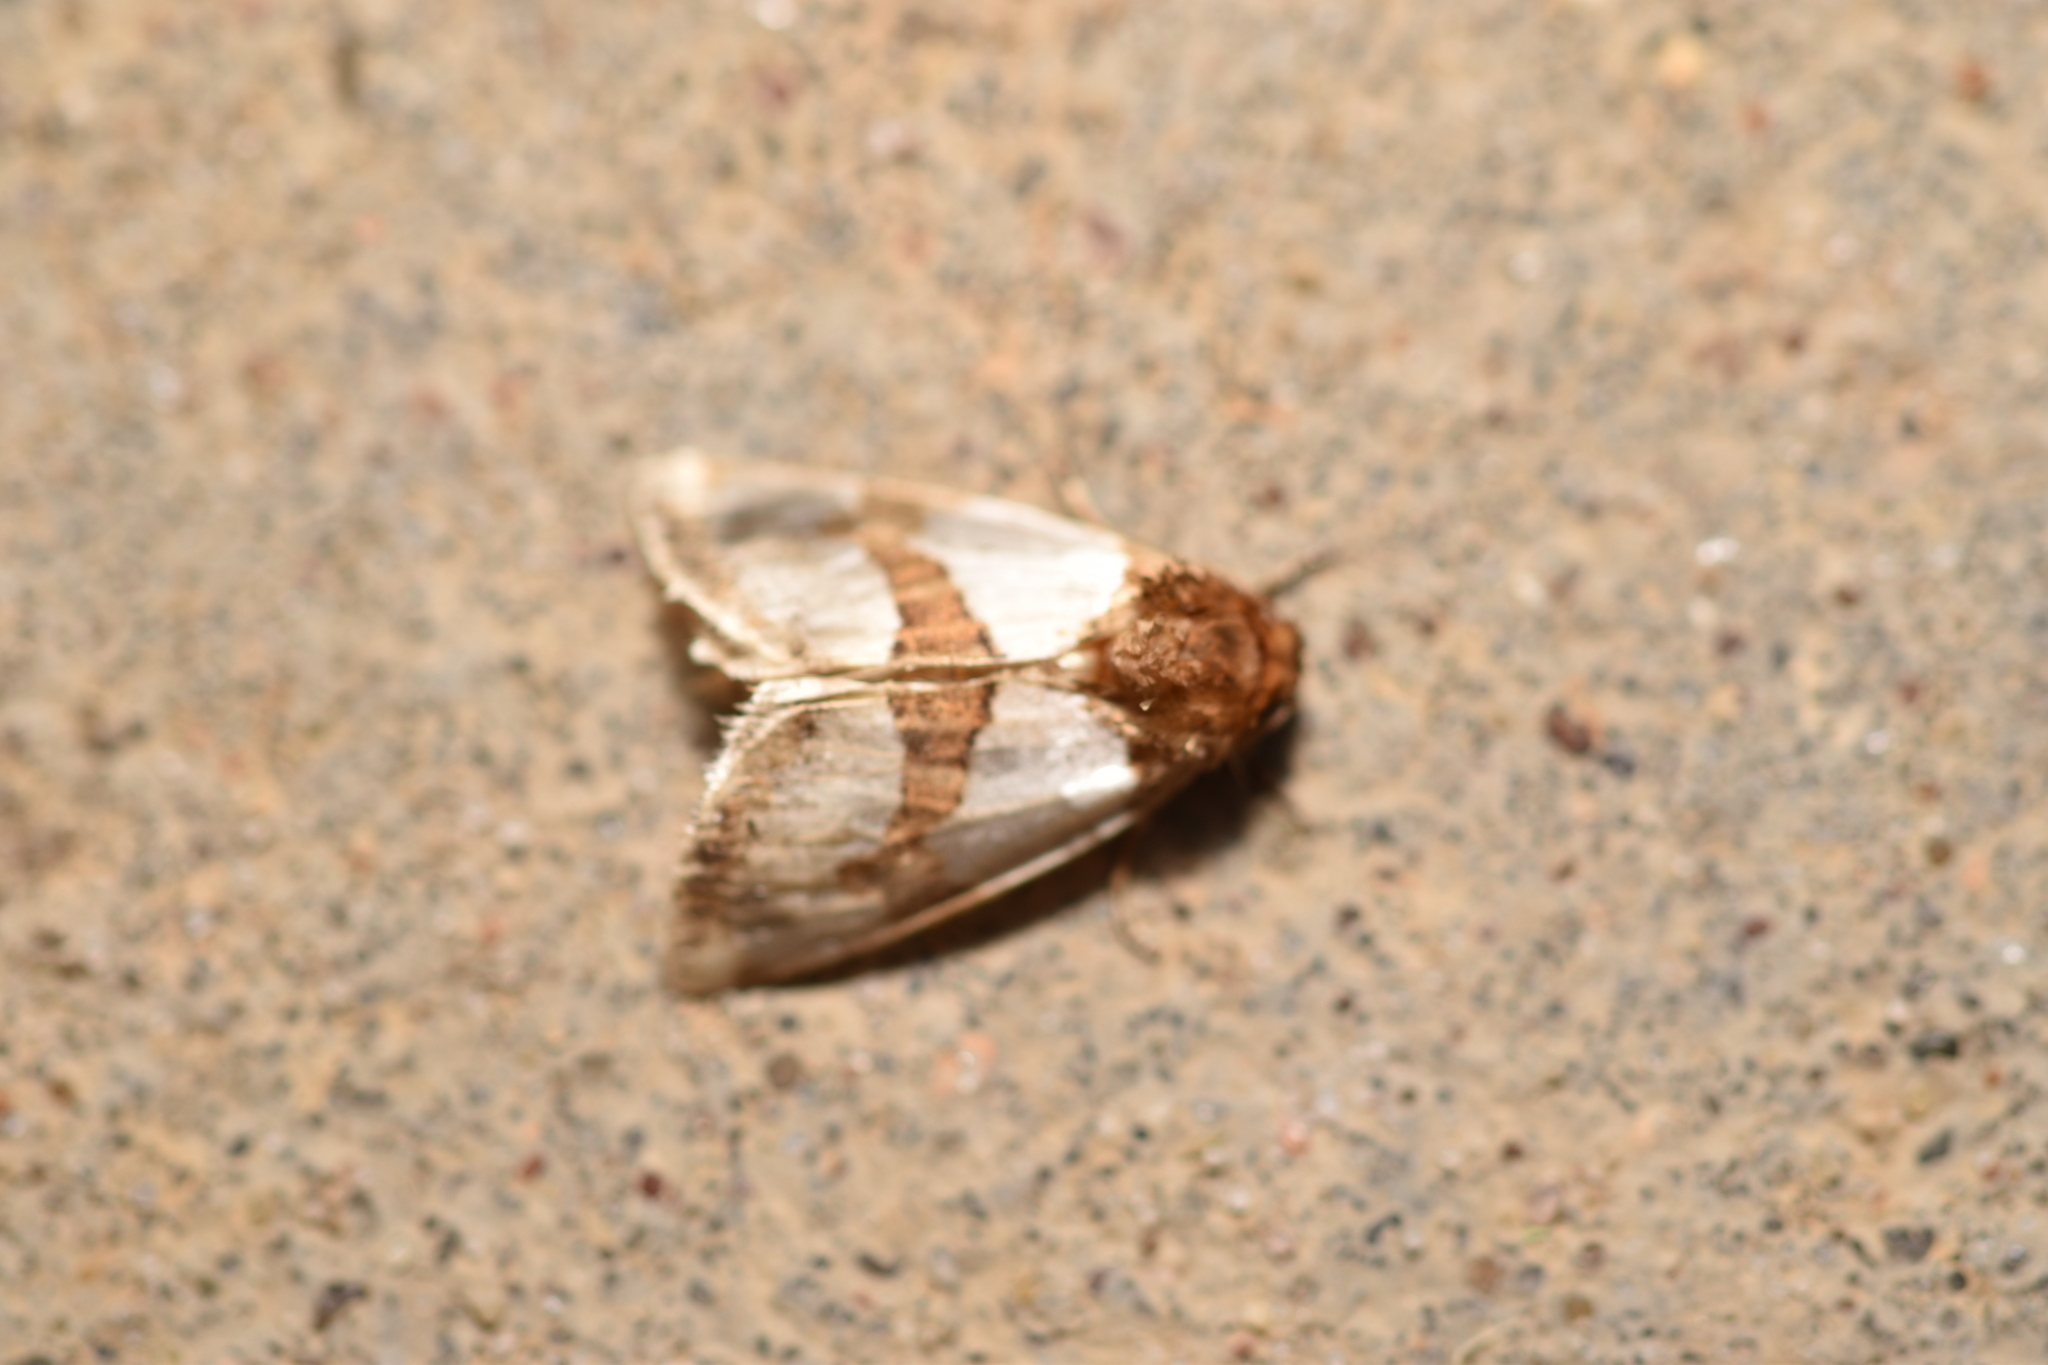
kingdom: Animalia
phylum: Arthropoda
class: Insecta
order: Lepidoptera
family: Noctuidae
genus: Schinia
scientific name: Schinia chrysellus
